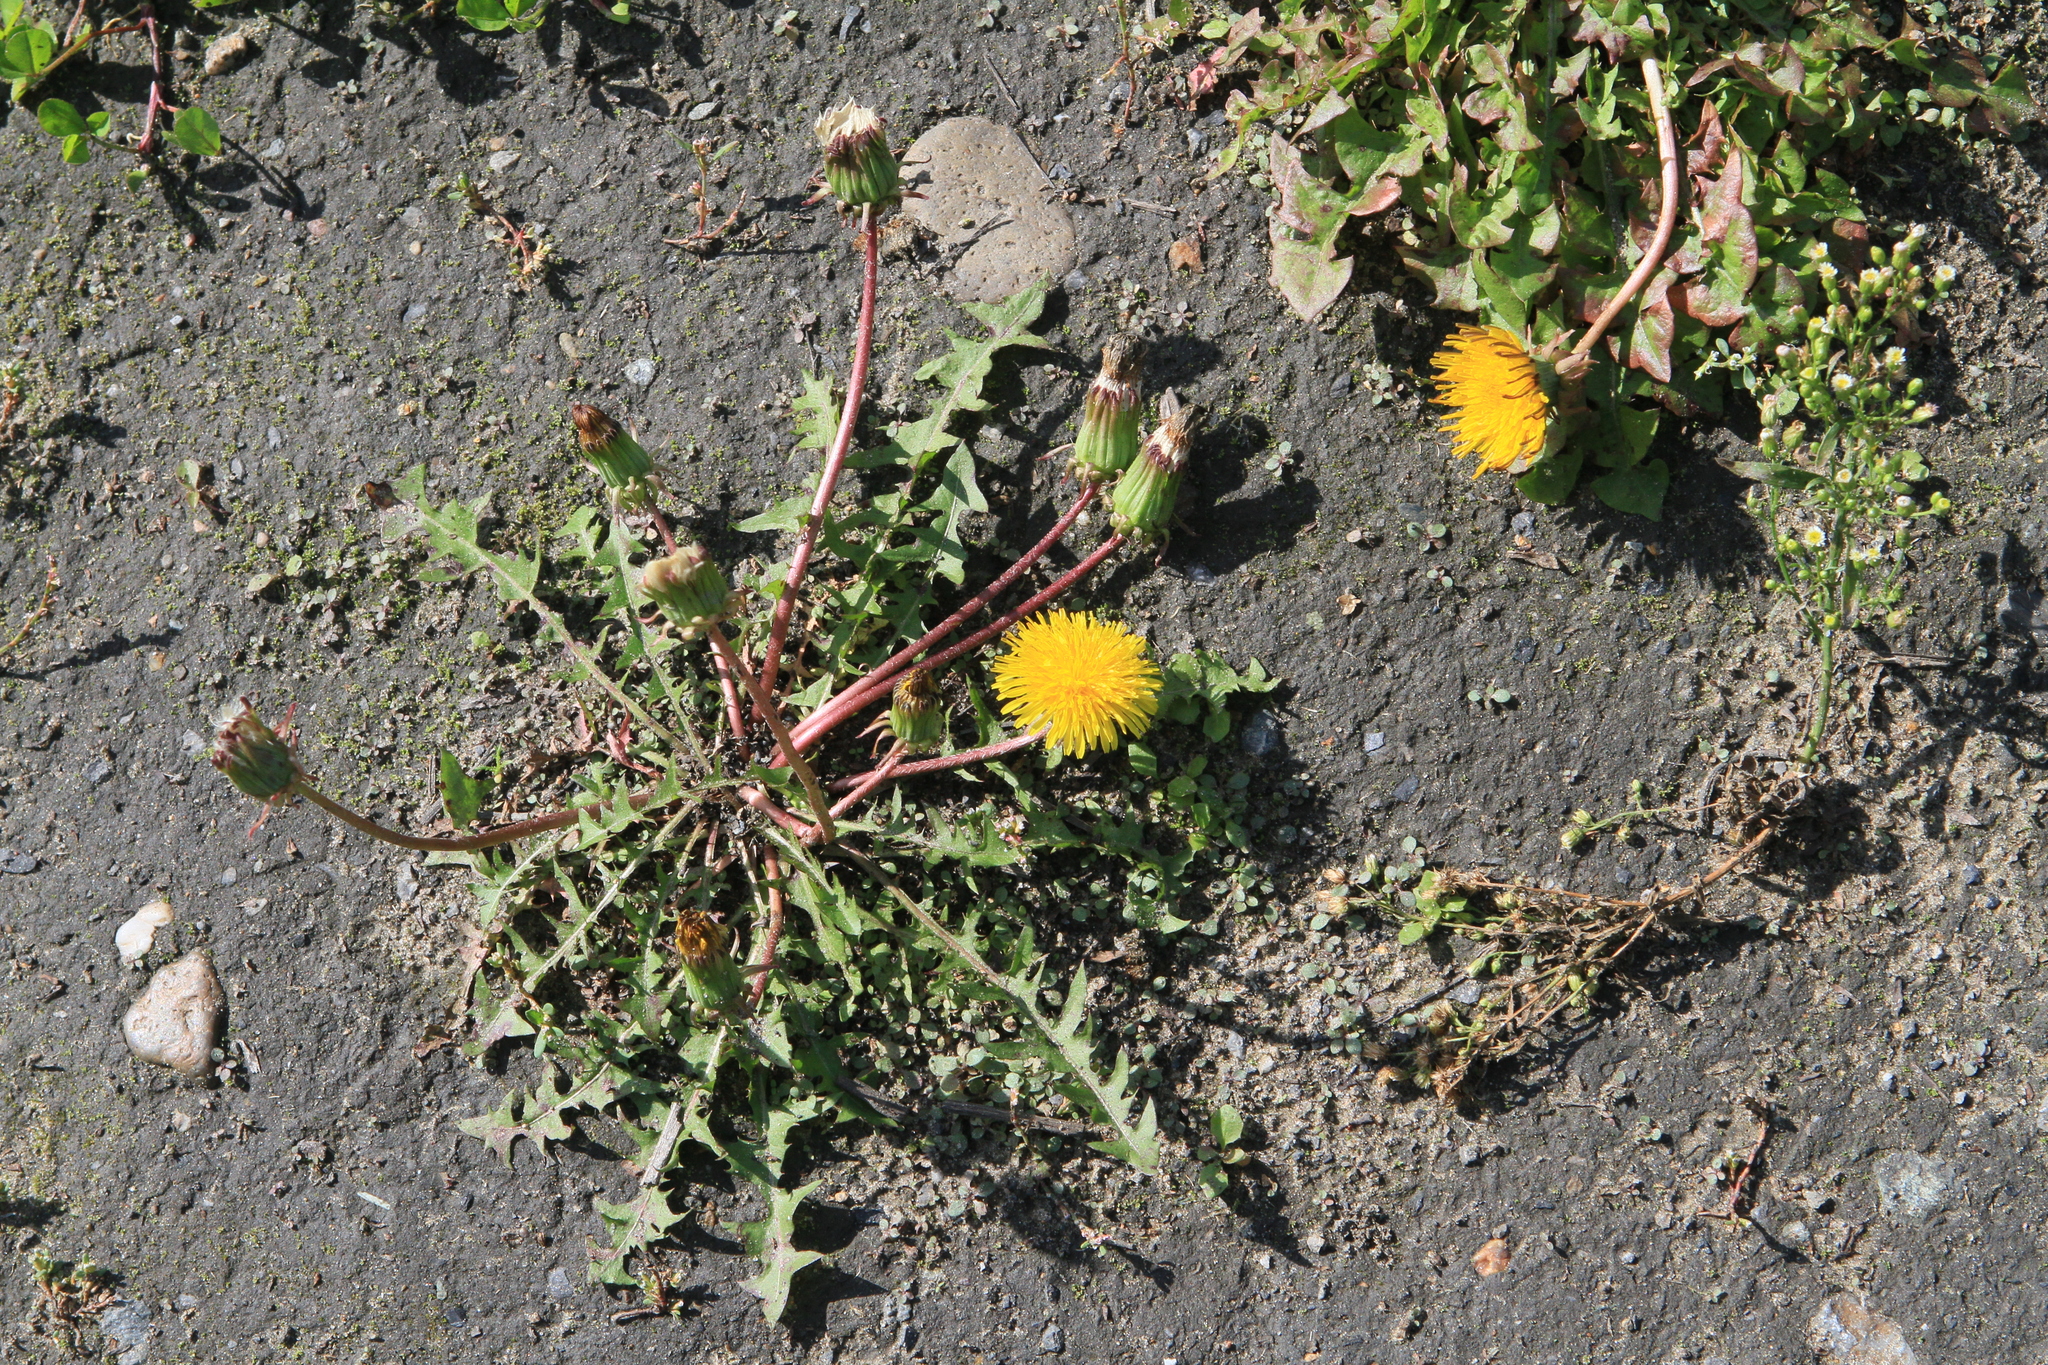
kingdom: Plantae
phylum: Tracheophyta
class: Magnoliopsida
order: Asterales
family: Asteraceae
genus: Taraxacum
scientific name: Taraxacum officinale
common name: Common dandelion
